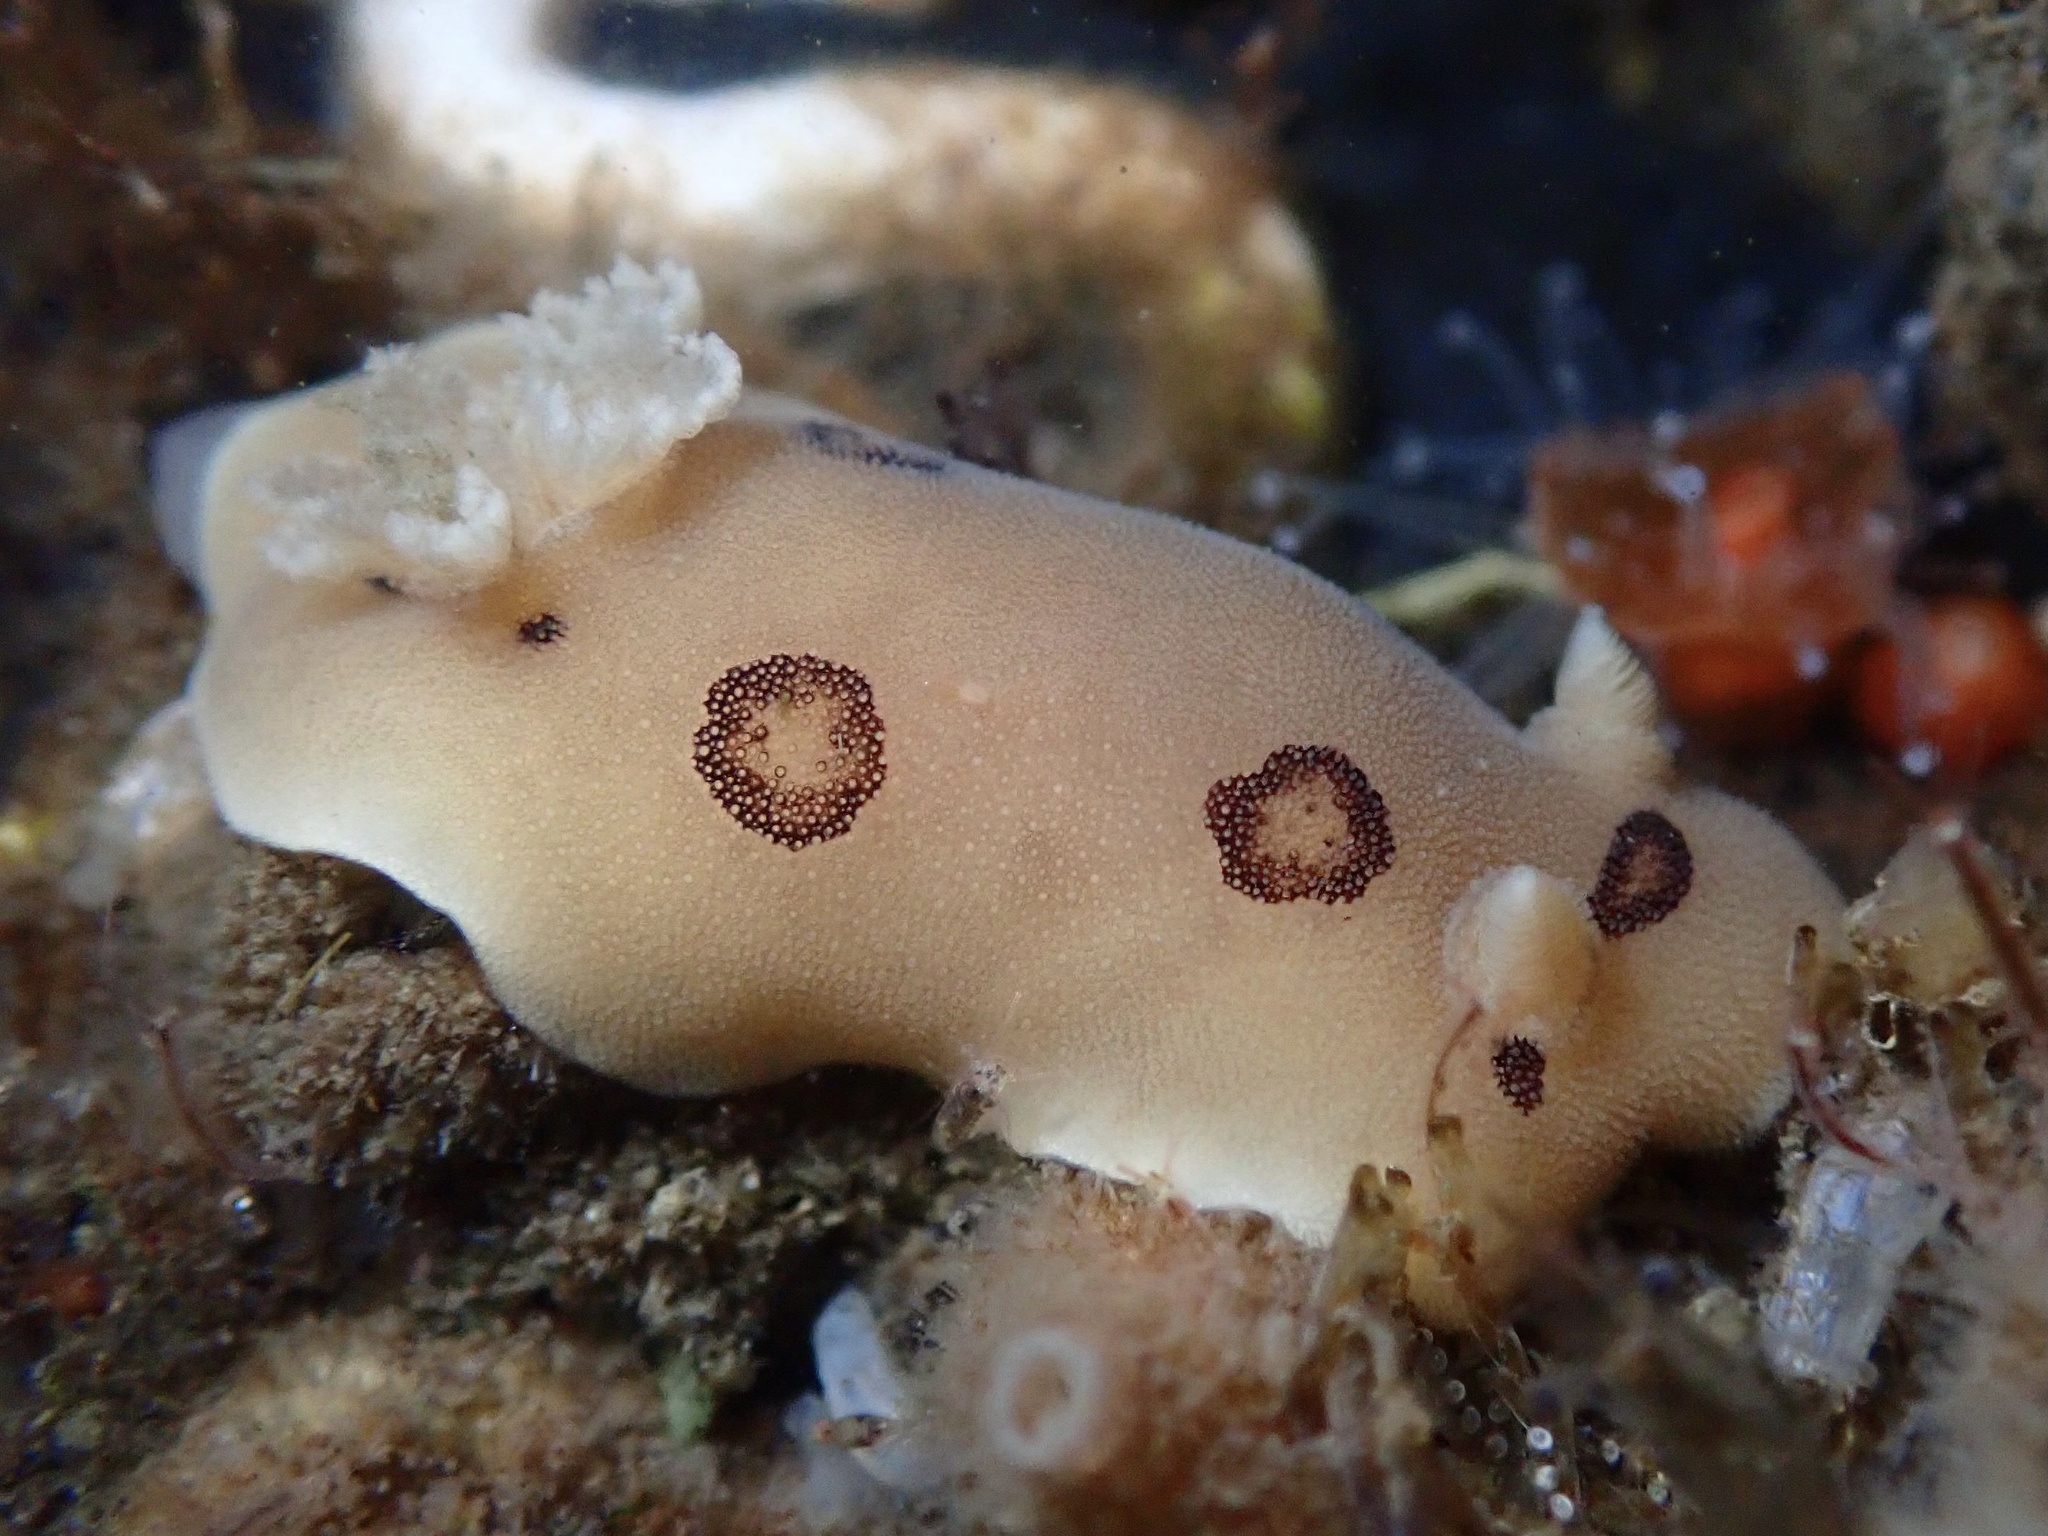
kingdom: Animalia
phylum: Mollusca
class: Gastropoda
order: Nudibranchia
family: Discodorididae
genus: Diaulula
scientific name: Diaulula sandiegensis
